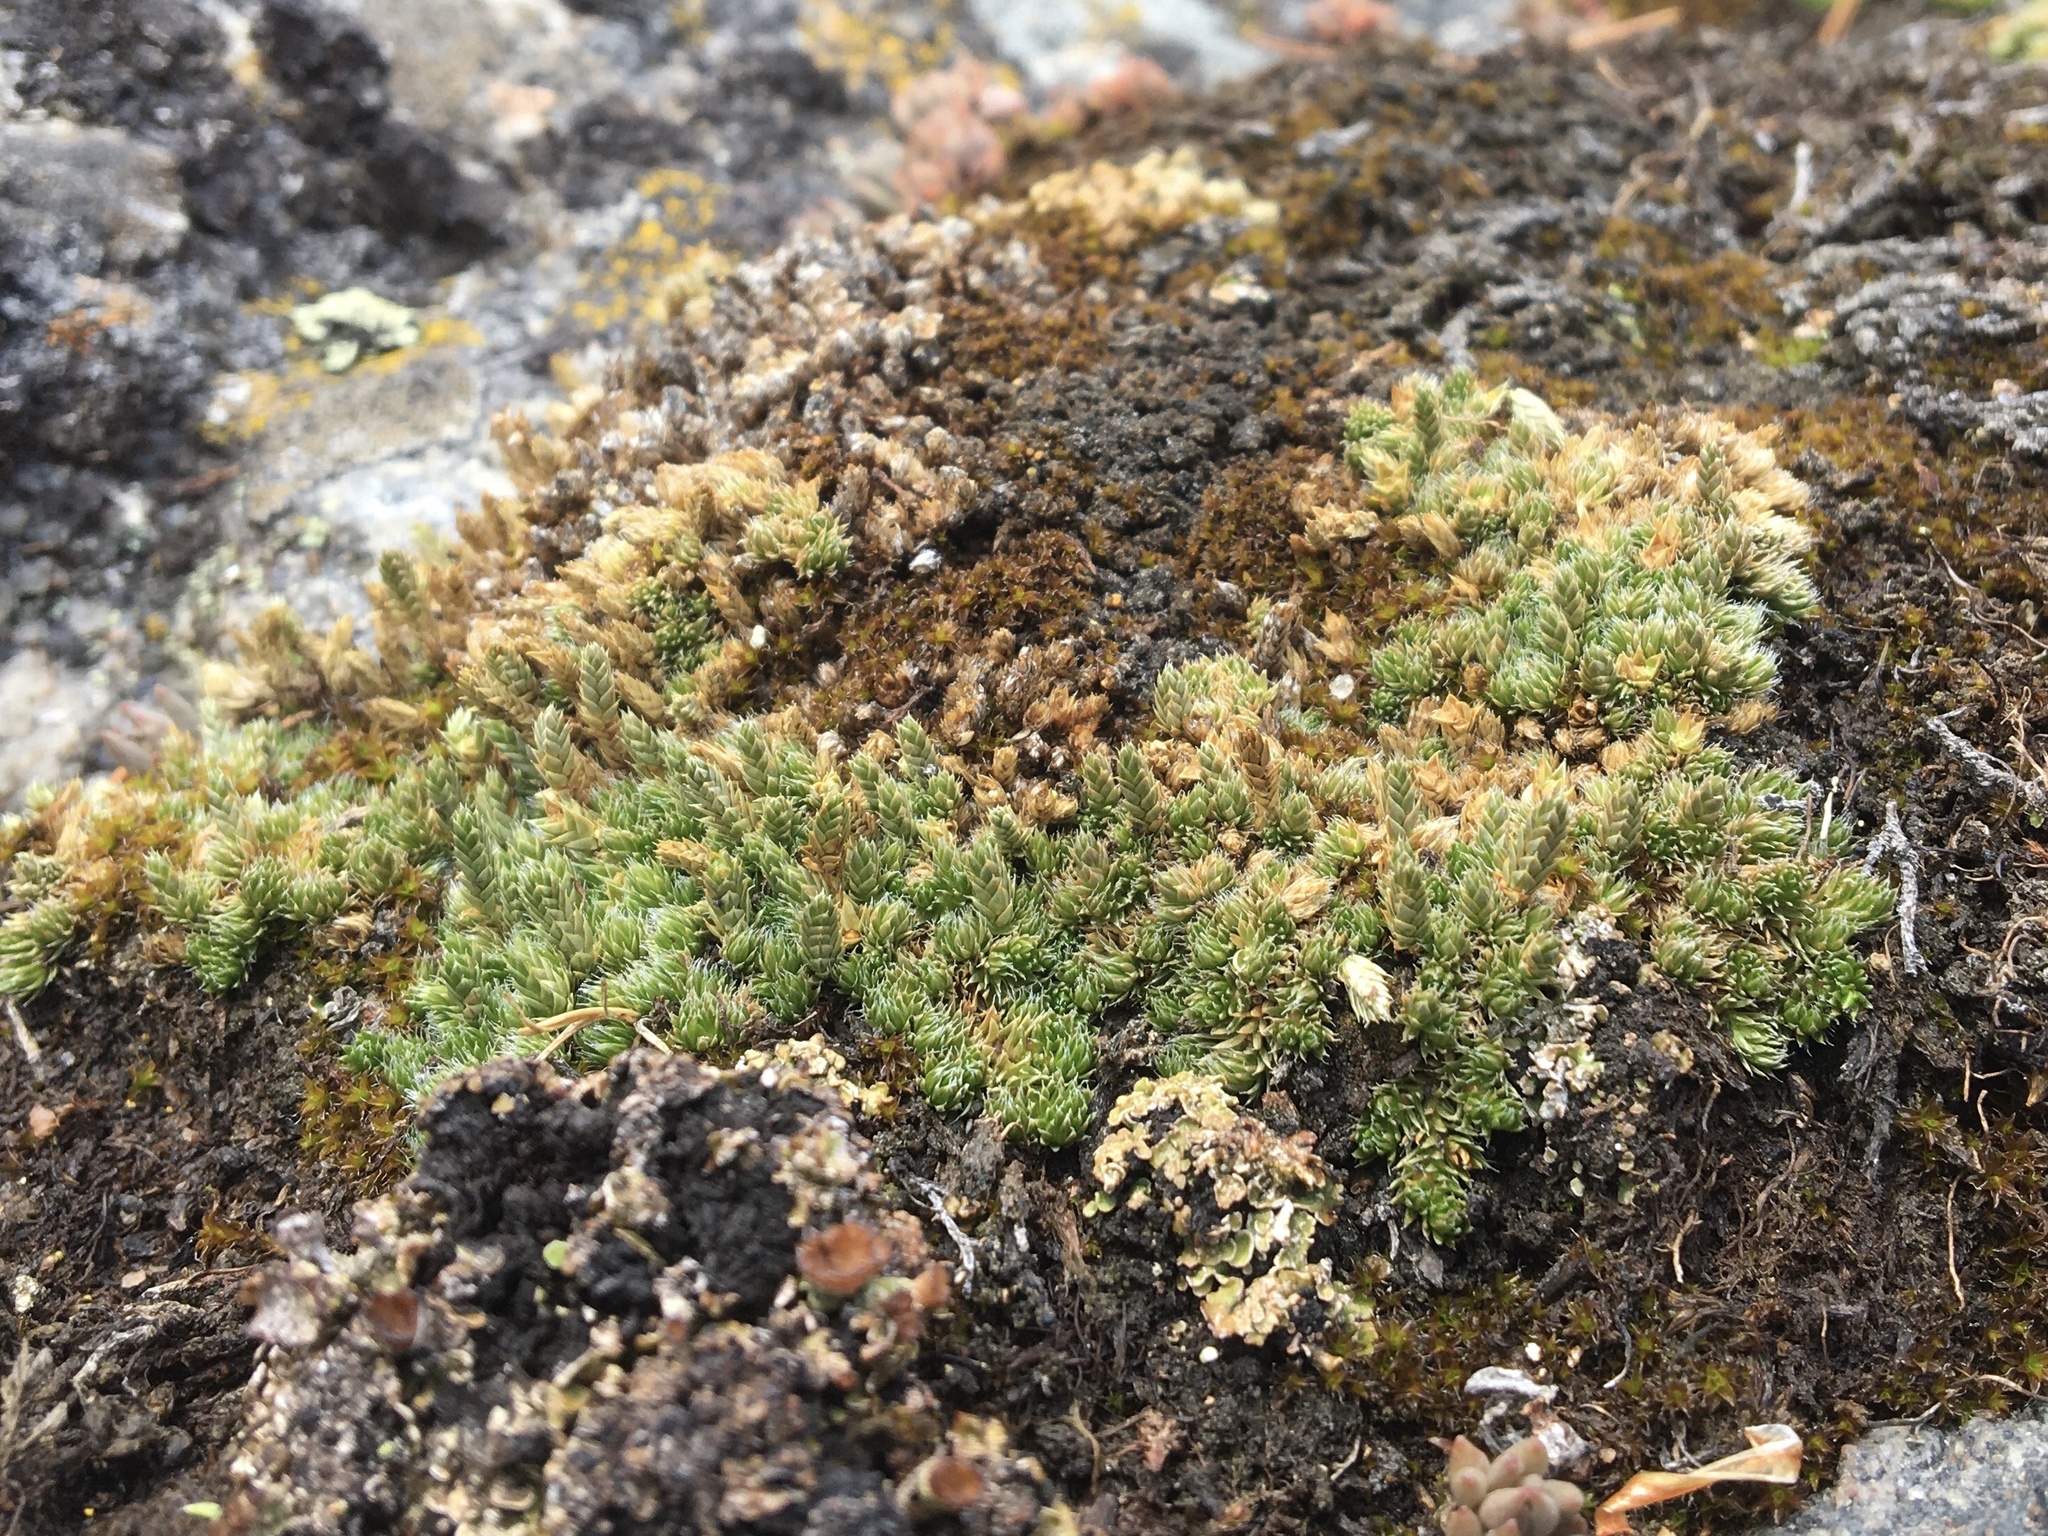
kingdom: Plantae
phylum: Tracheophyta
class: Lycopodiopsida
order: Selaginellales
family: Selaginellaceae
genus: Selaginella
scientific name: Selaginella densa
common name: Mountain spike-moss
